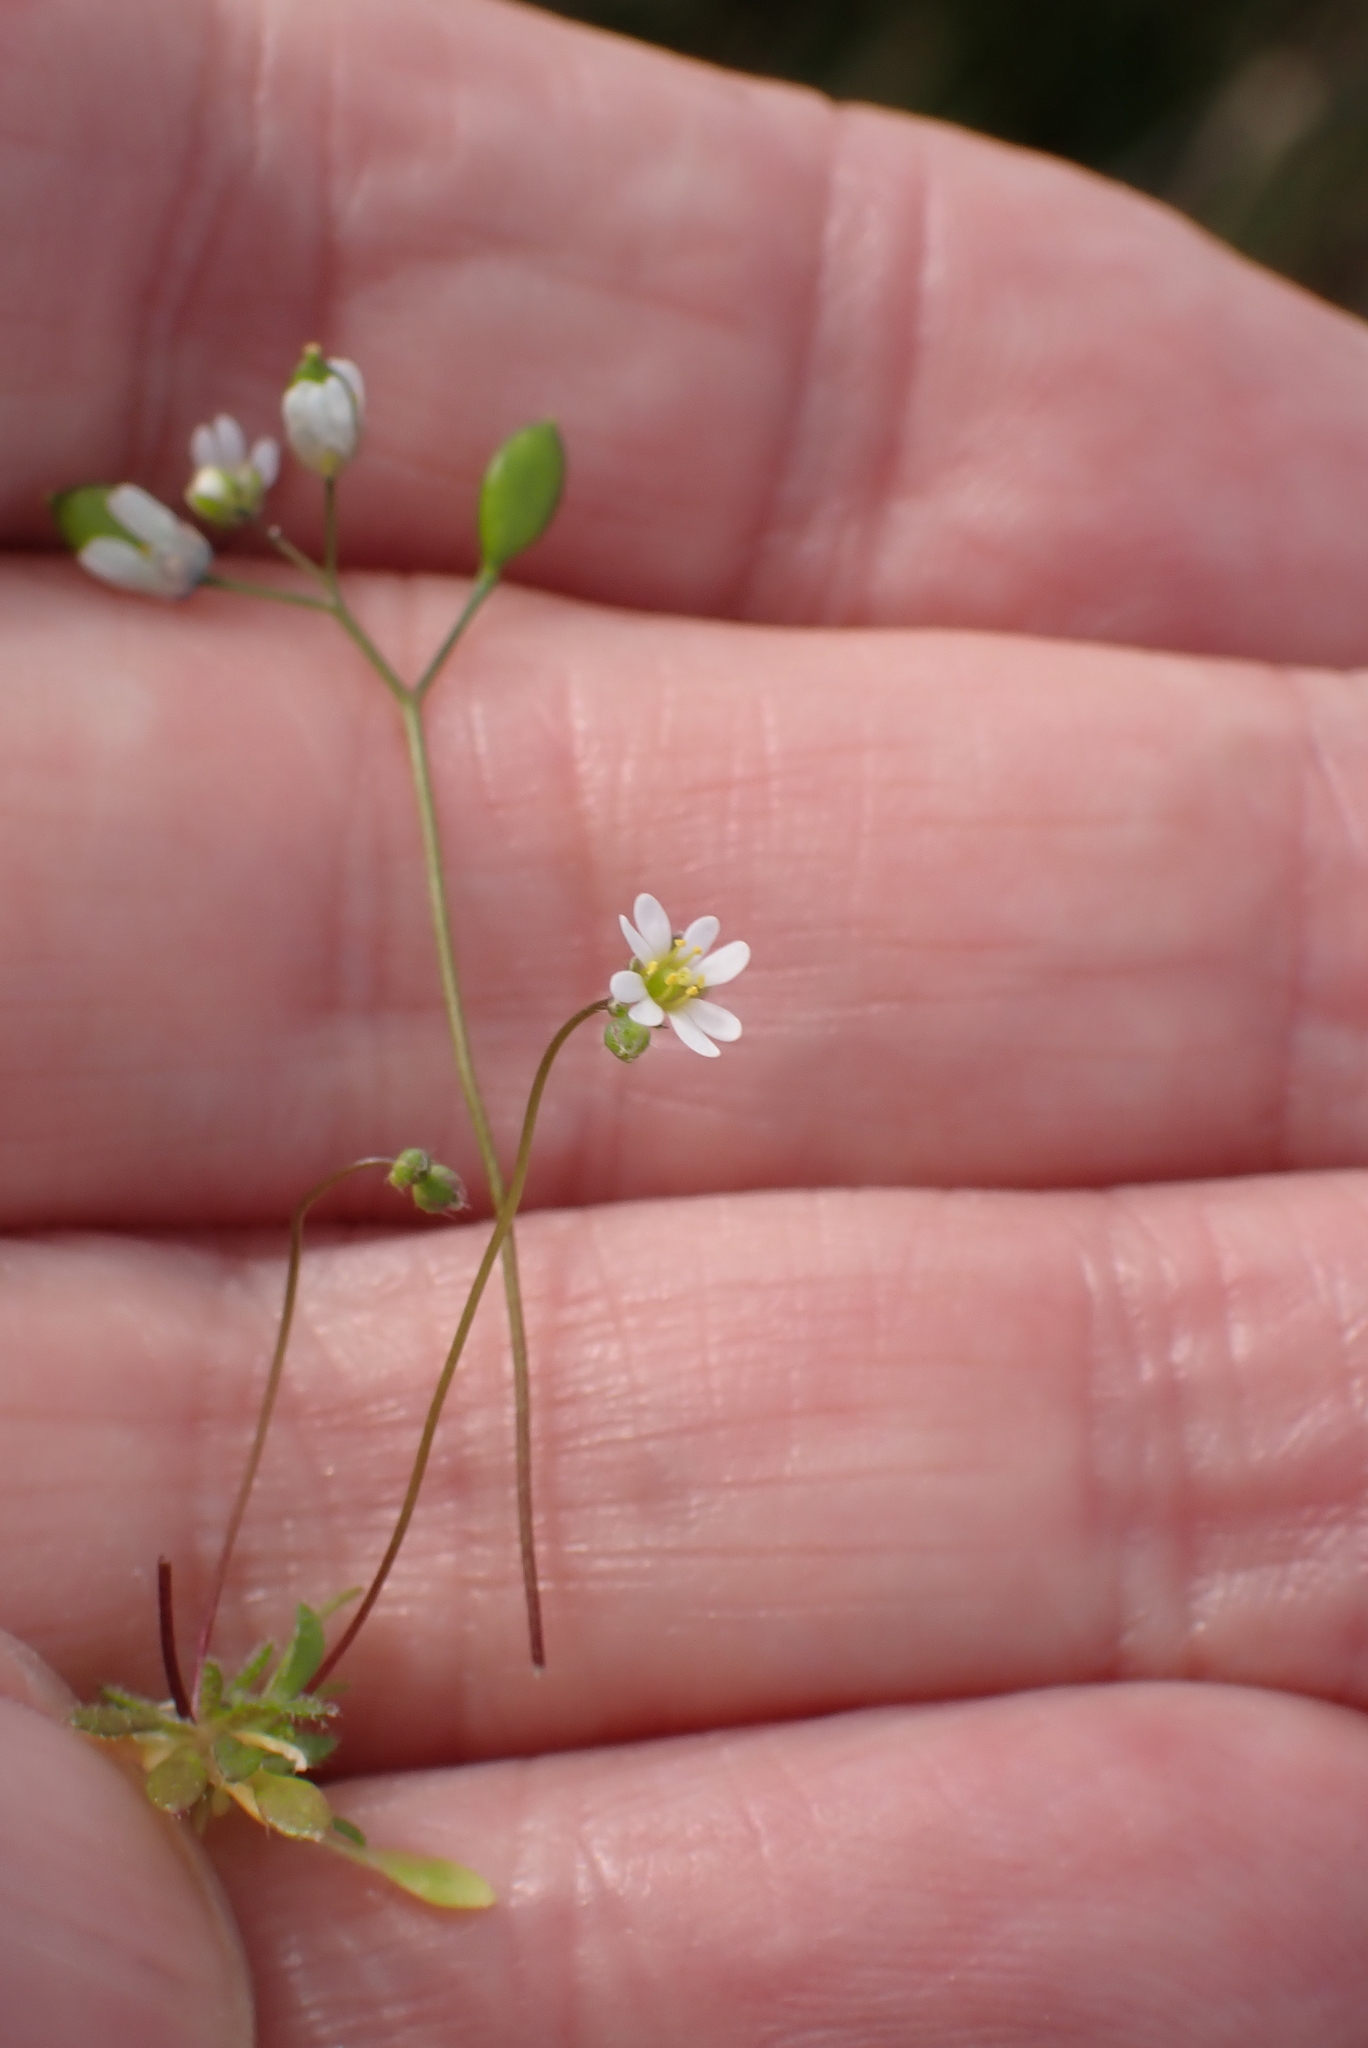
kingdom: Plantae
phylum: Tracheophyta
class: Magnoliopsida
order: Brassicales
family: Brassicaceae
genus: Draba
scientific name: Draba verna
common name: Spring draba
